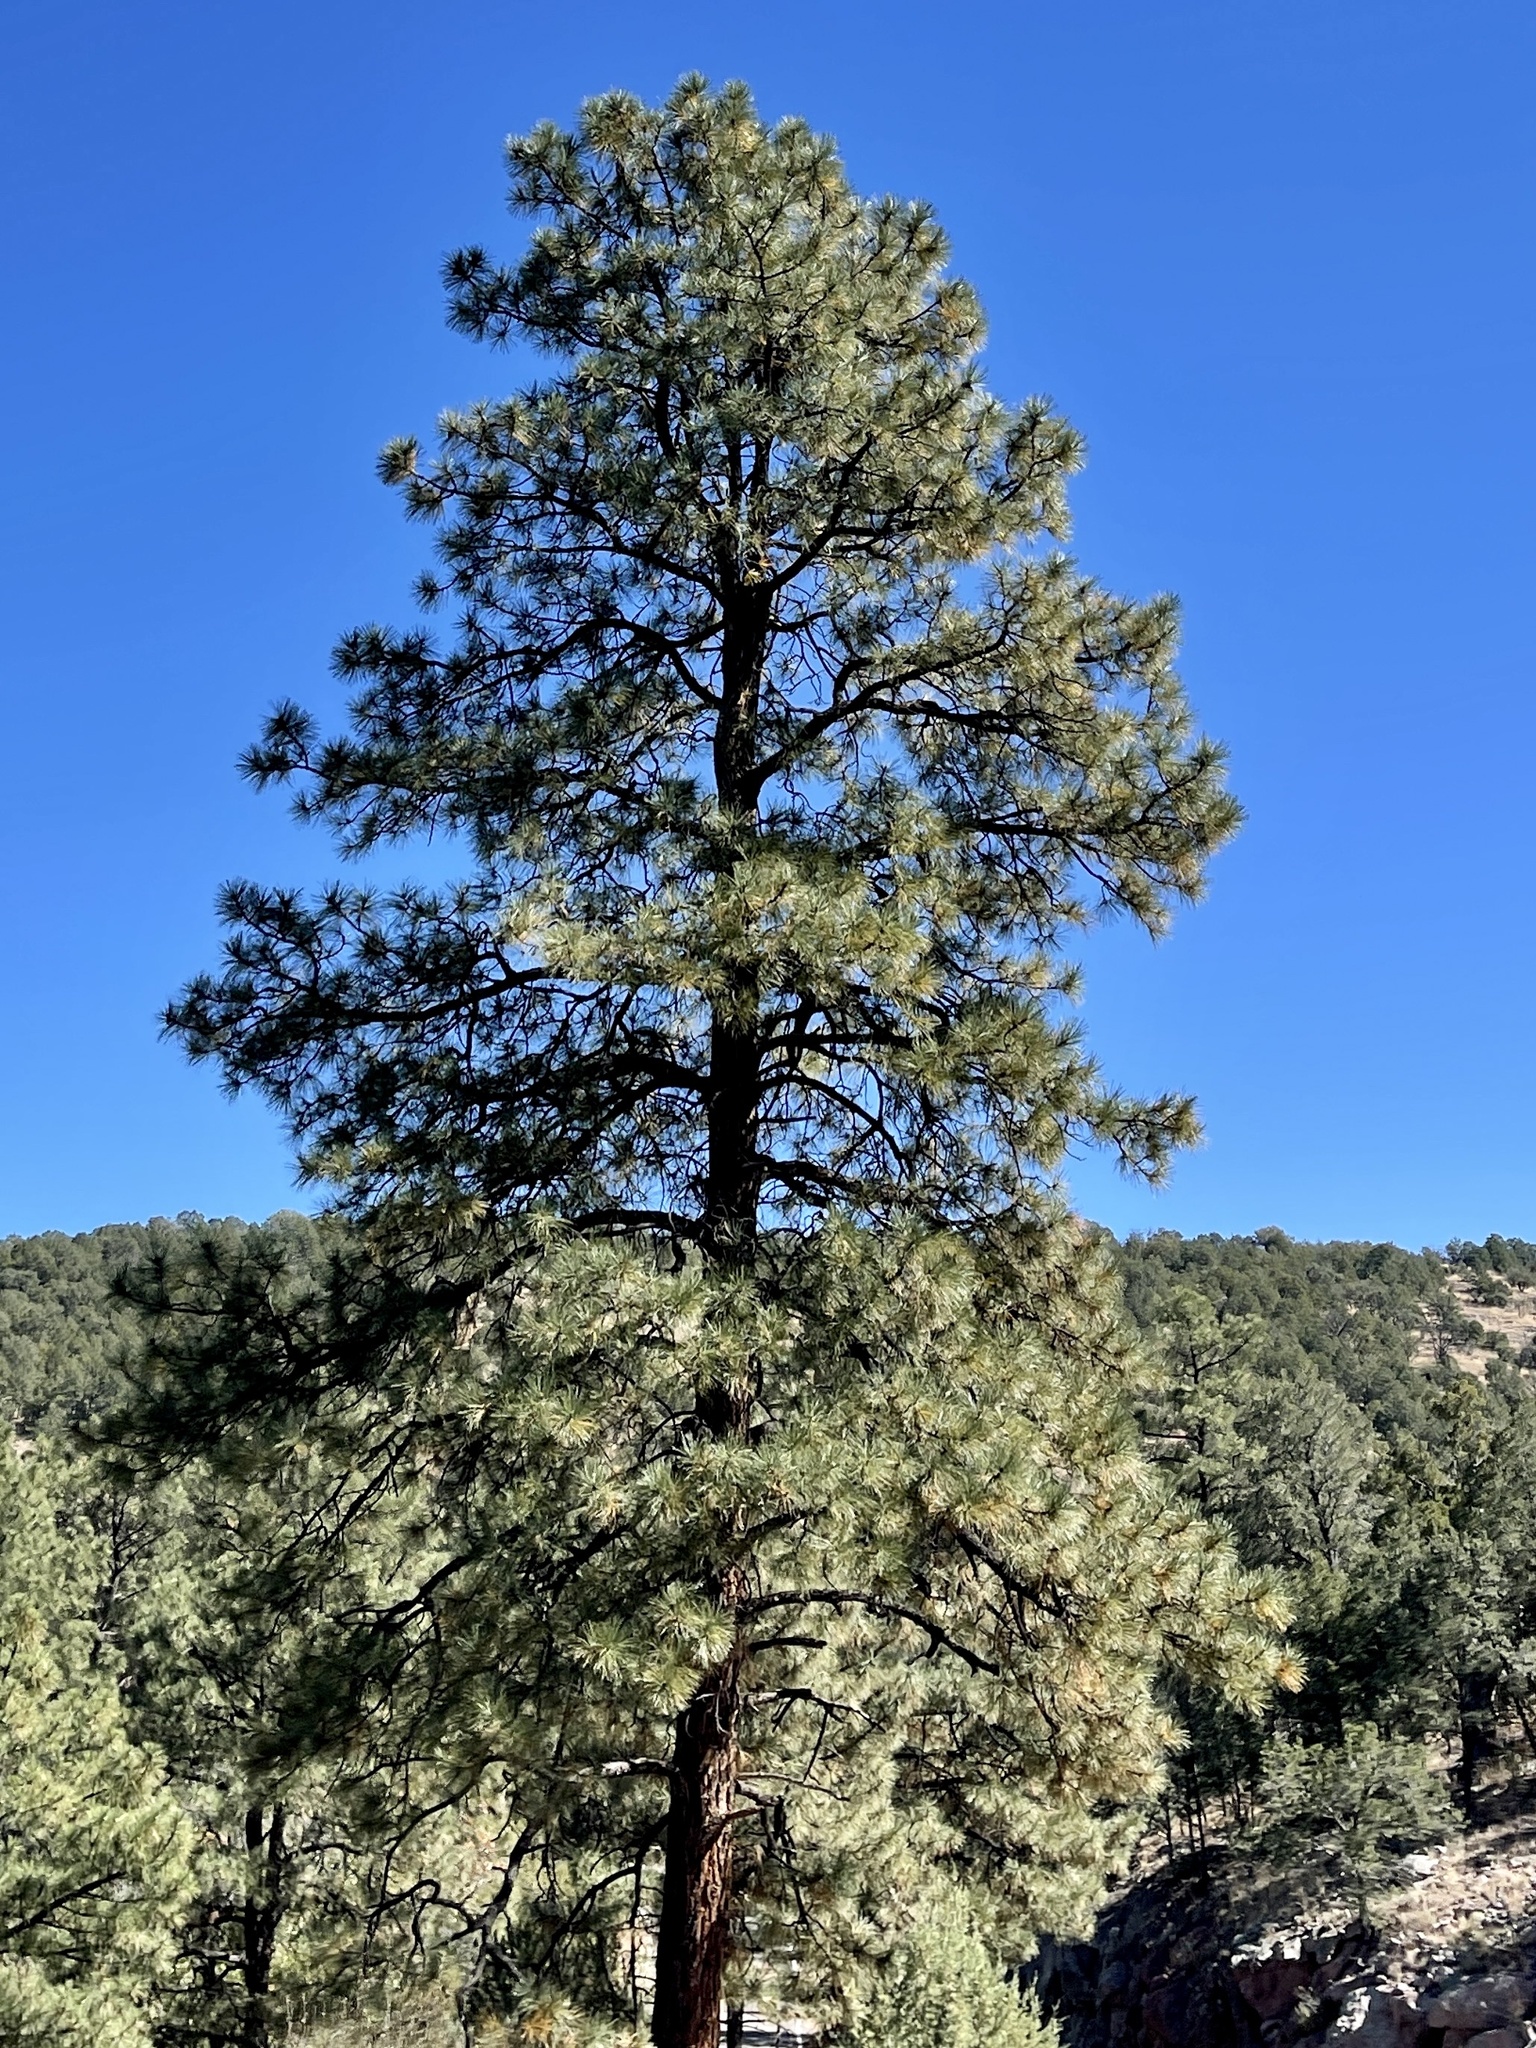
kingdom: Plantae
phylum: Tracheophyta
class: Pinopsida
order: Pinales
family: Pinaceae
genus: Pinus
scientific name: Pinus ponderosa
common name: Western yellow-pine
